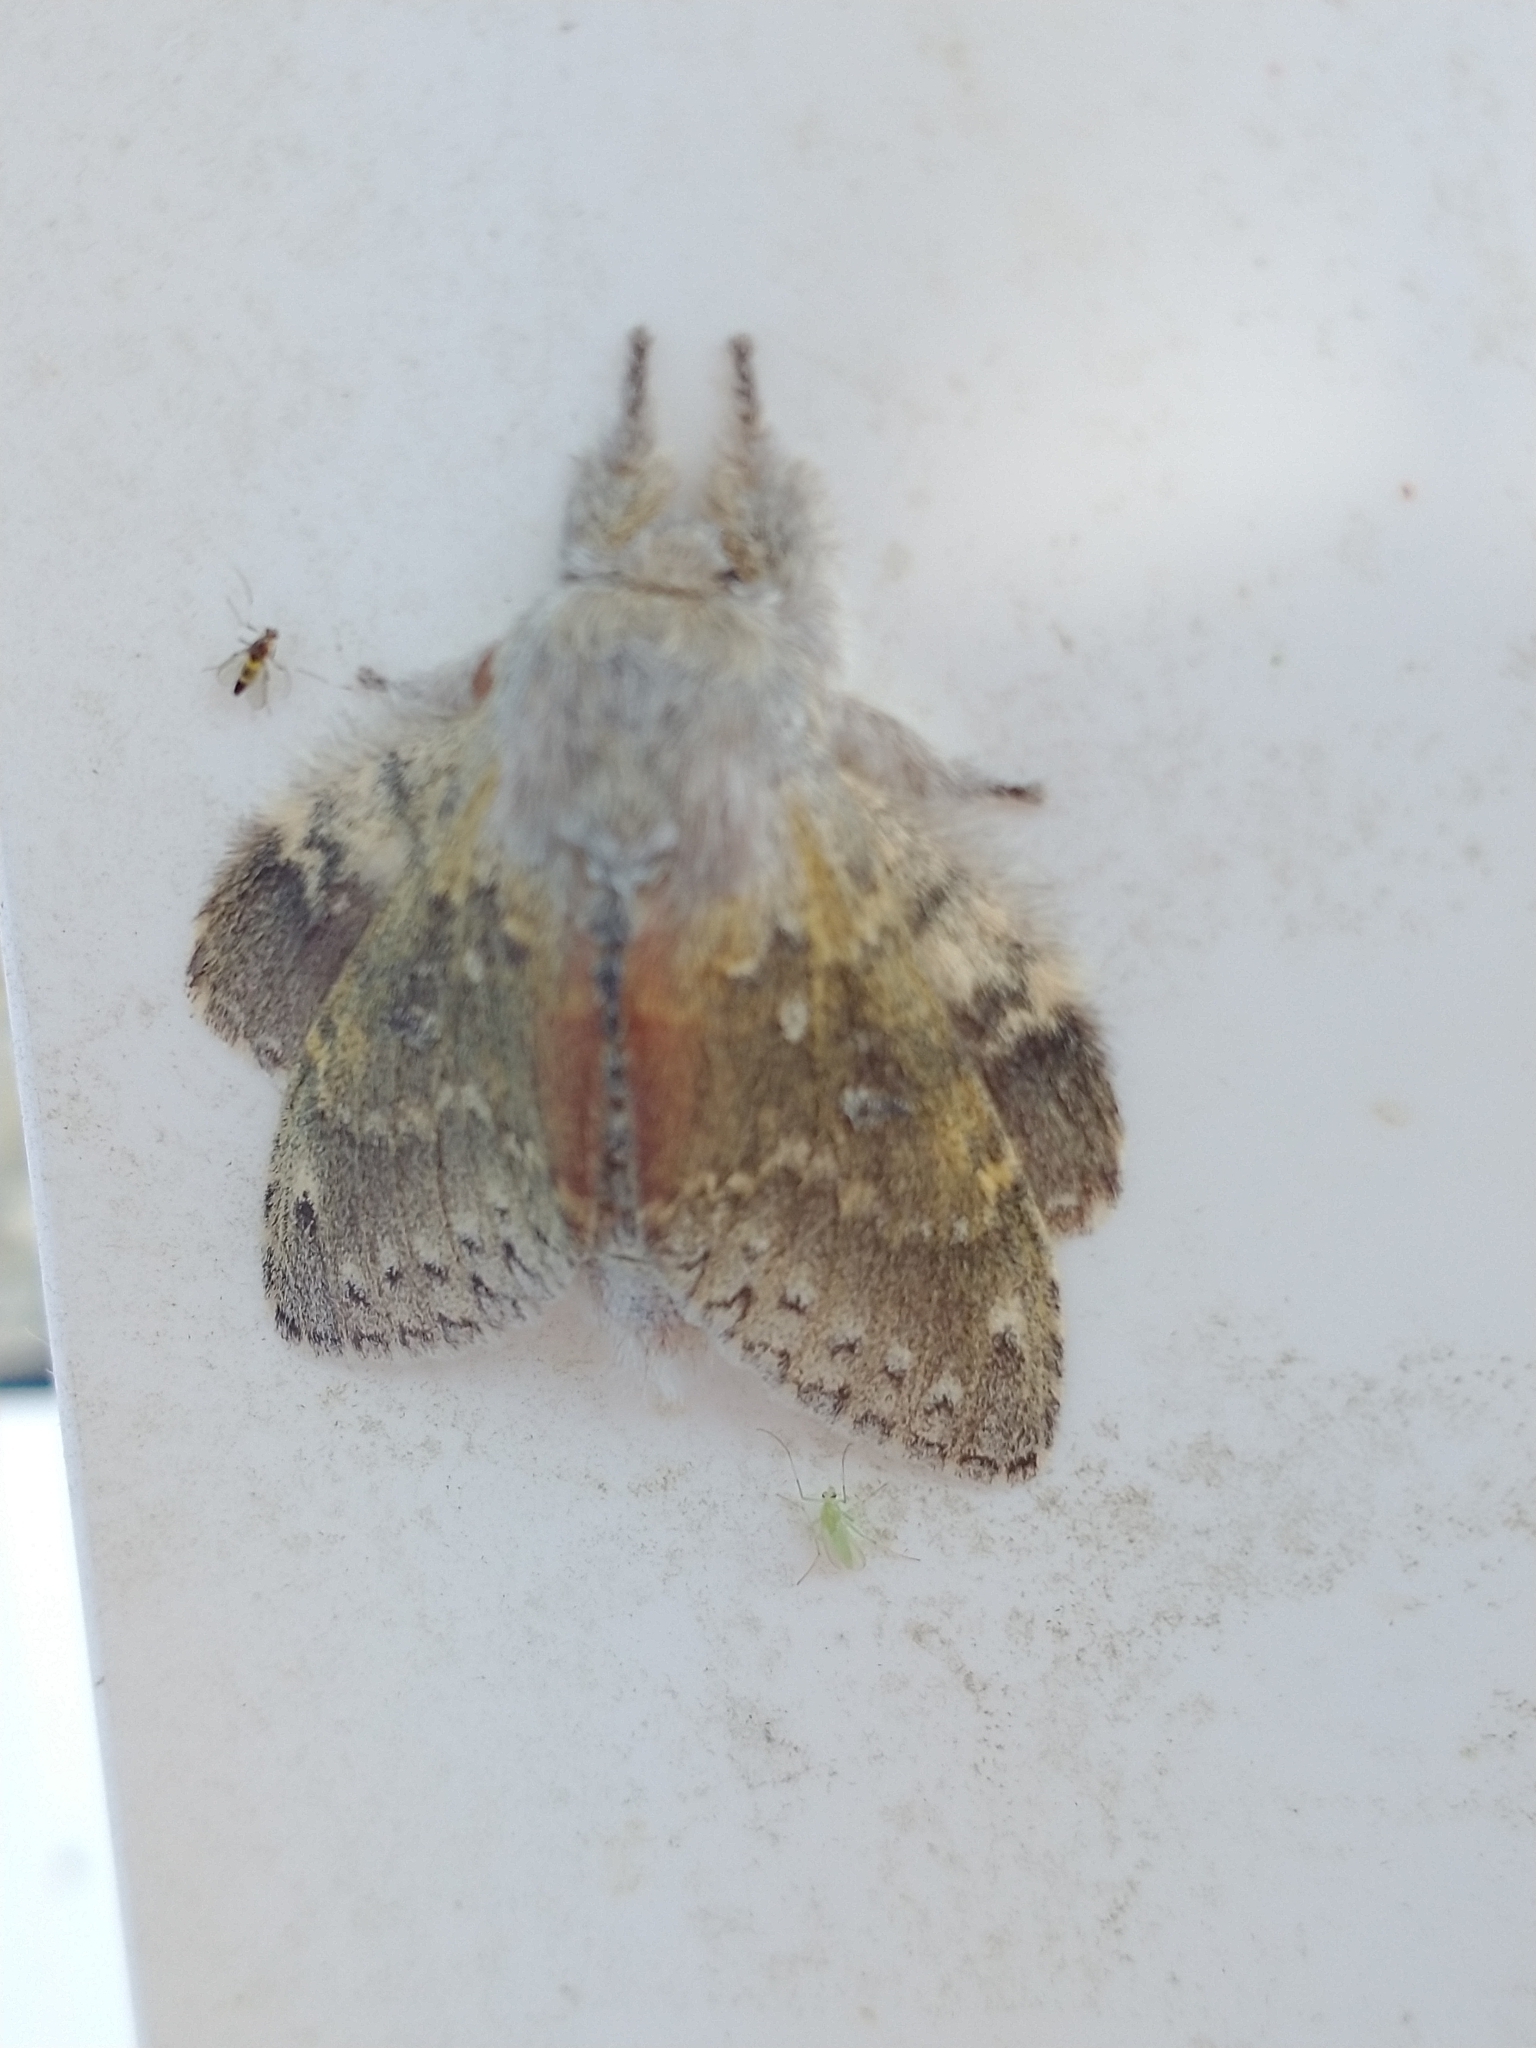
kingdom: Animalia
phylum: Arthropoda
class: Insecta
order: Lepidoptera
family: Notodontidae
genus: Stauropus
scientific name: Stauropus fagi
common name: Lobster moth
